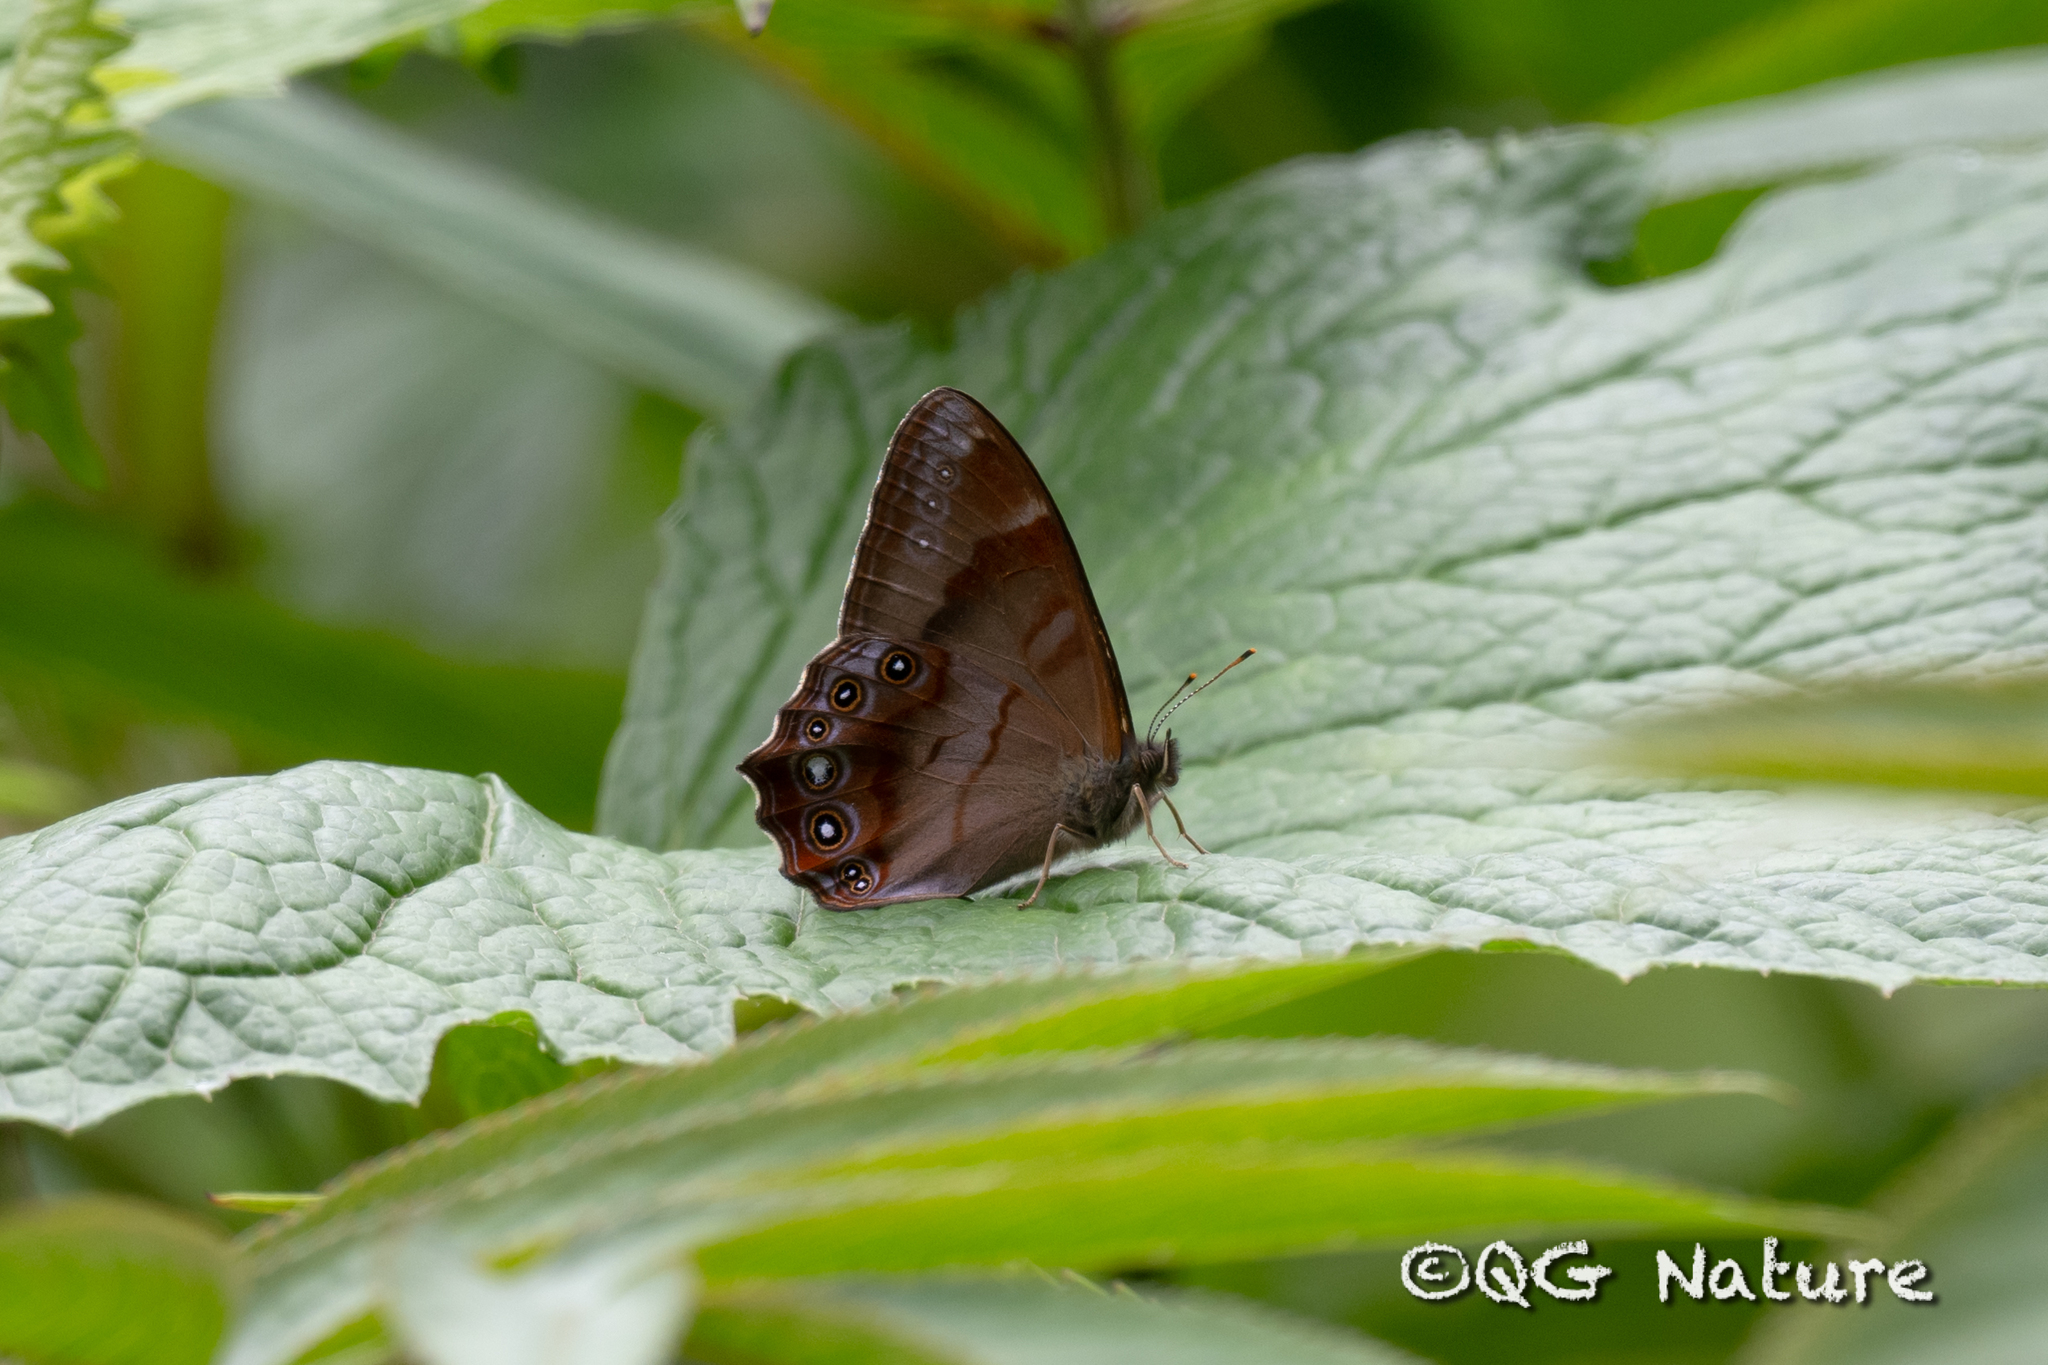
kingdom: Animalia
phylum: Arthropoda
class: Insecta
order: Lepidoptera
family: Nymphalidae
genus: Lethe
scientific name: Lethe titania
